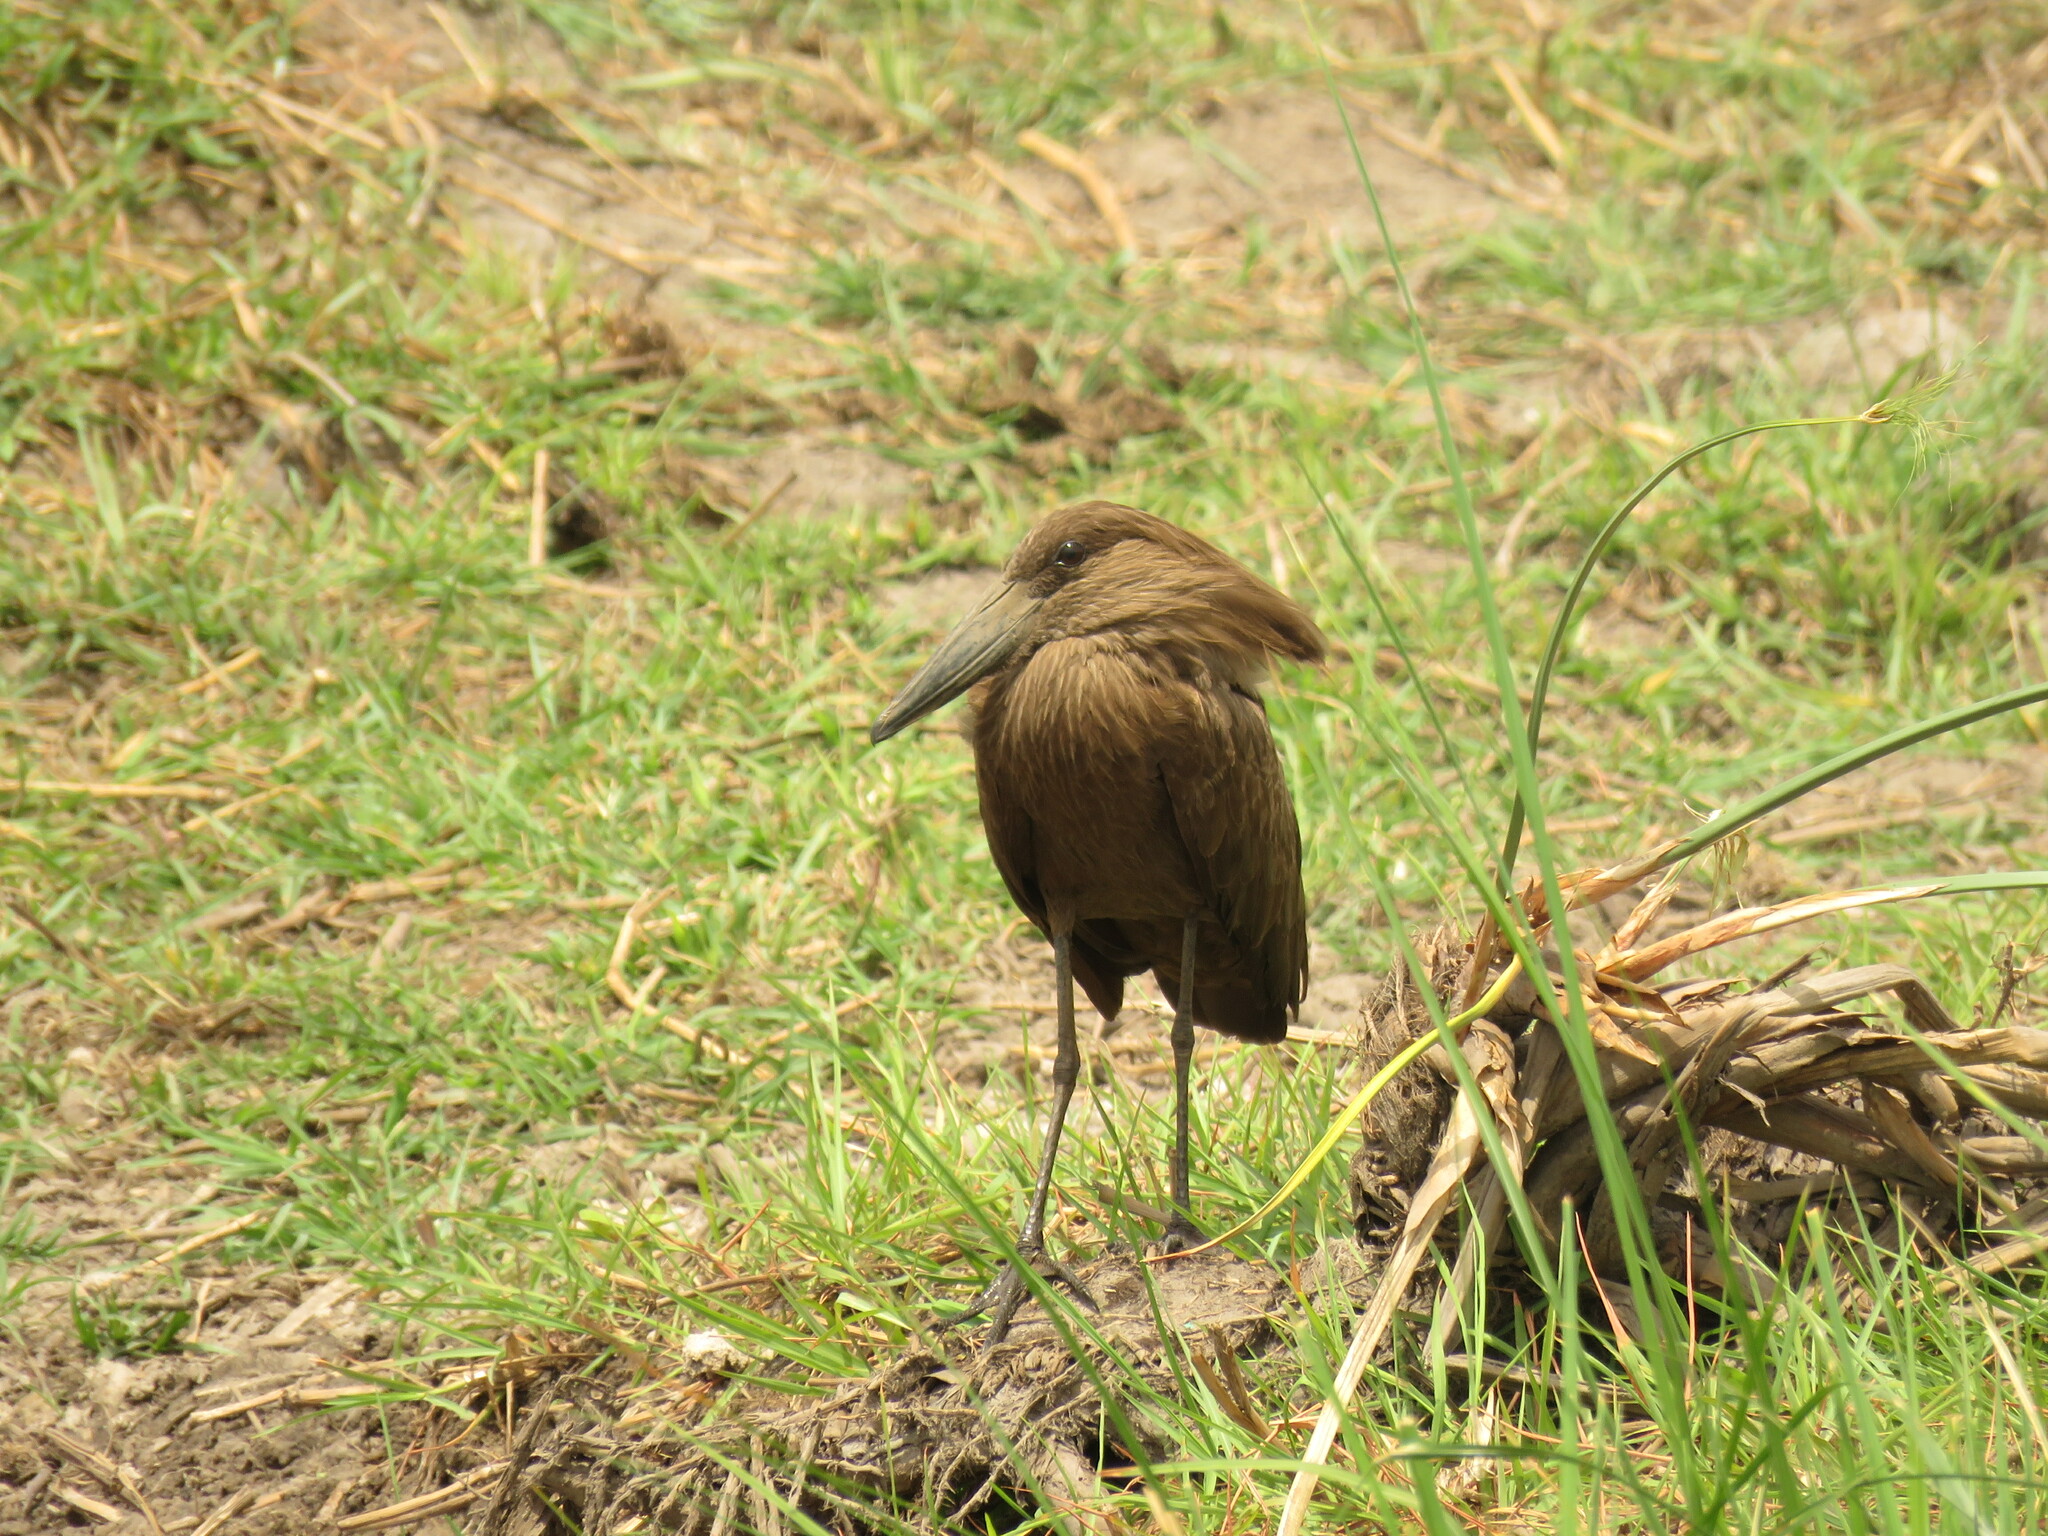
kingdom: Animalia
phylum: Chordata
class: Aves
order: Pelecaniformes
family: Scopidae
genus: Scopus
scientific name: Scopus umbretta
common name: Hamerkop
